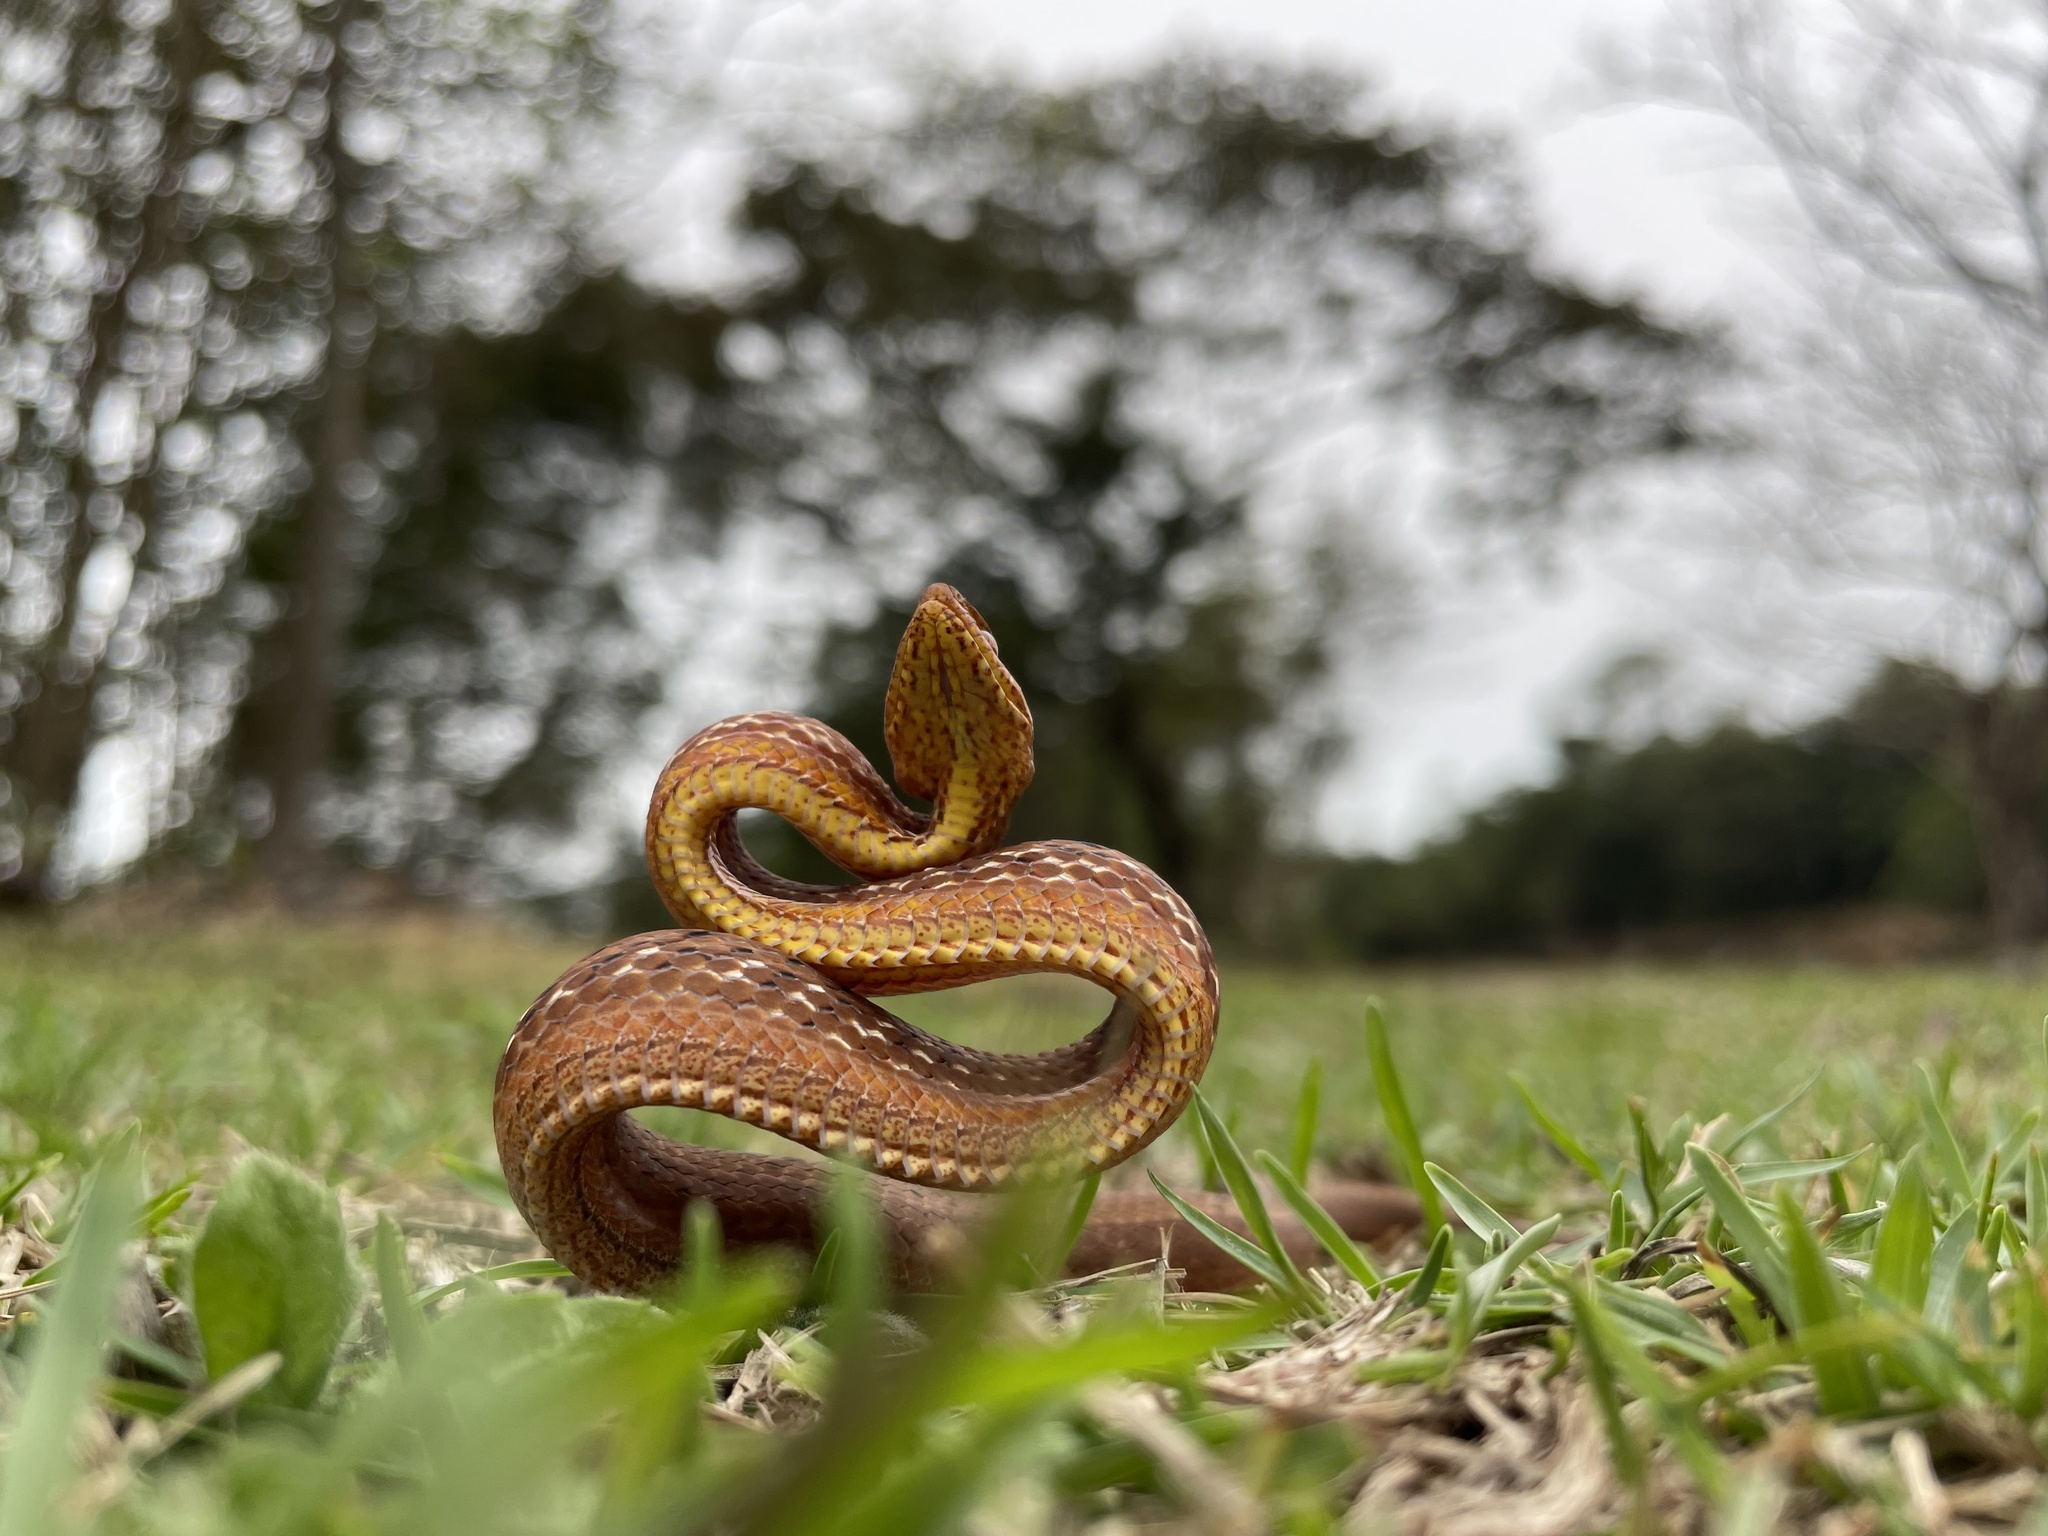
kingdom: Animalia
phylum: Chordata
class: Squamata
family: Pseudaspididae
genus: Psammodynastes
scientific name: Psammodynastes pulverulentus
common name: Common mock viper
